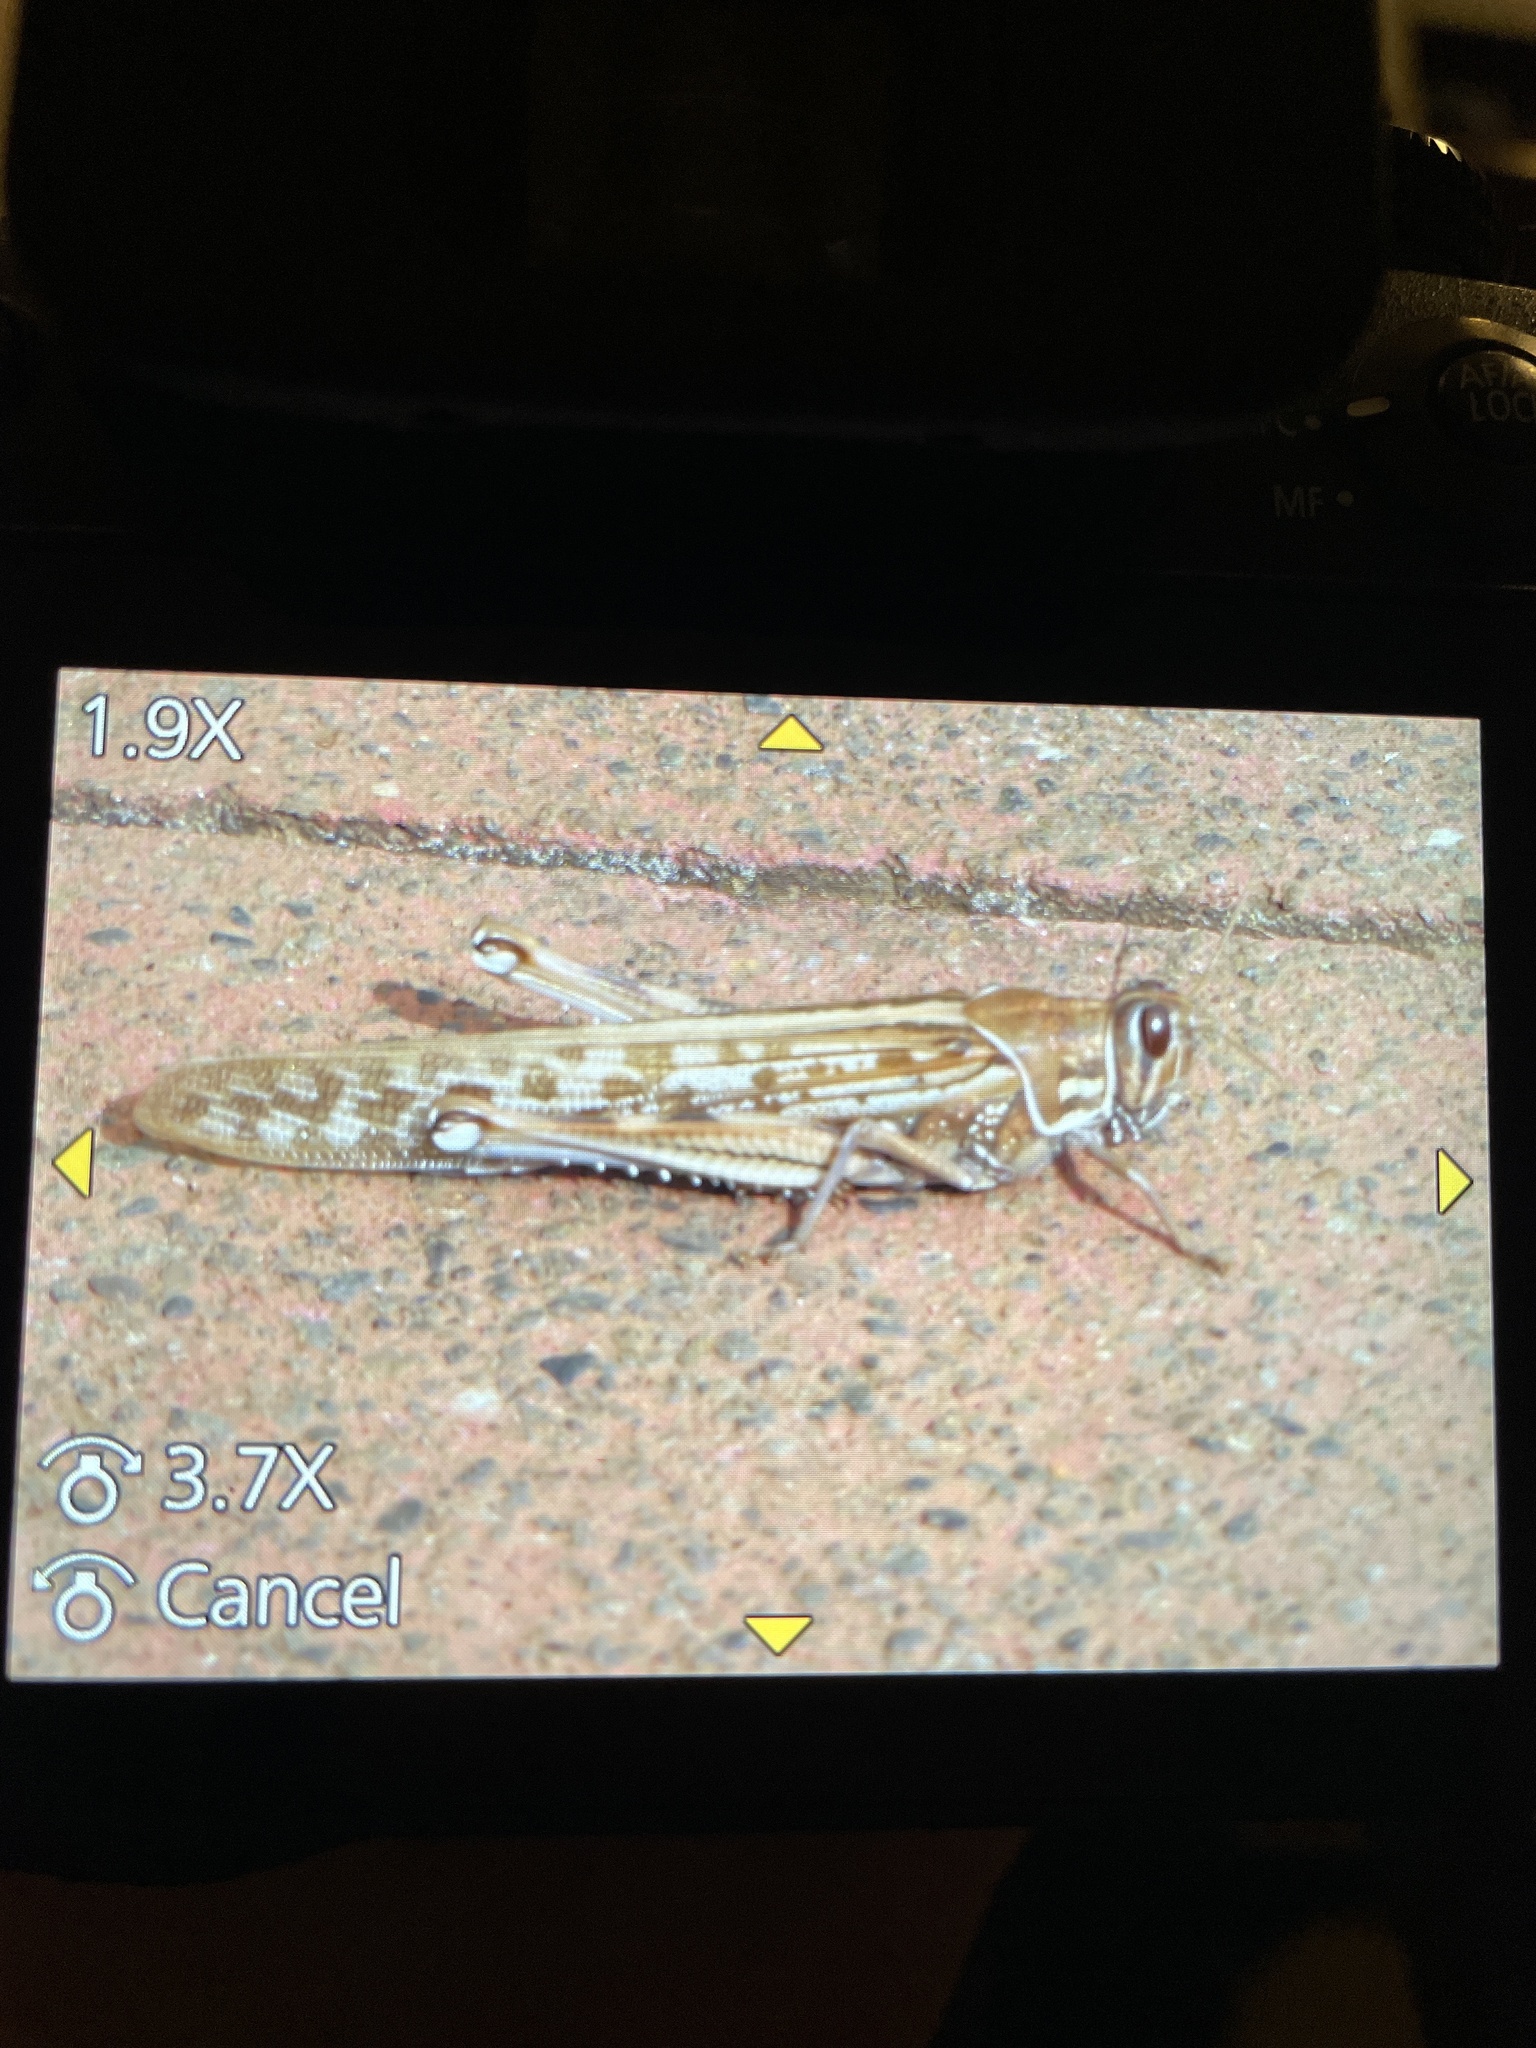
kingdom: Animalia
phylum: Arthropoda
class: Insecta
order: Orthoptera
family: Acrididae
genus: Schistocerca
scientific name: Schistocerca gregaria
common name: Desert locust
